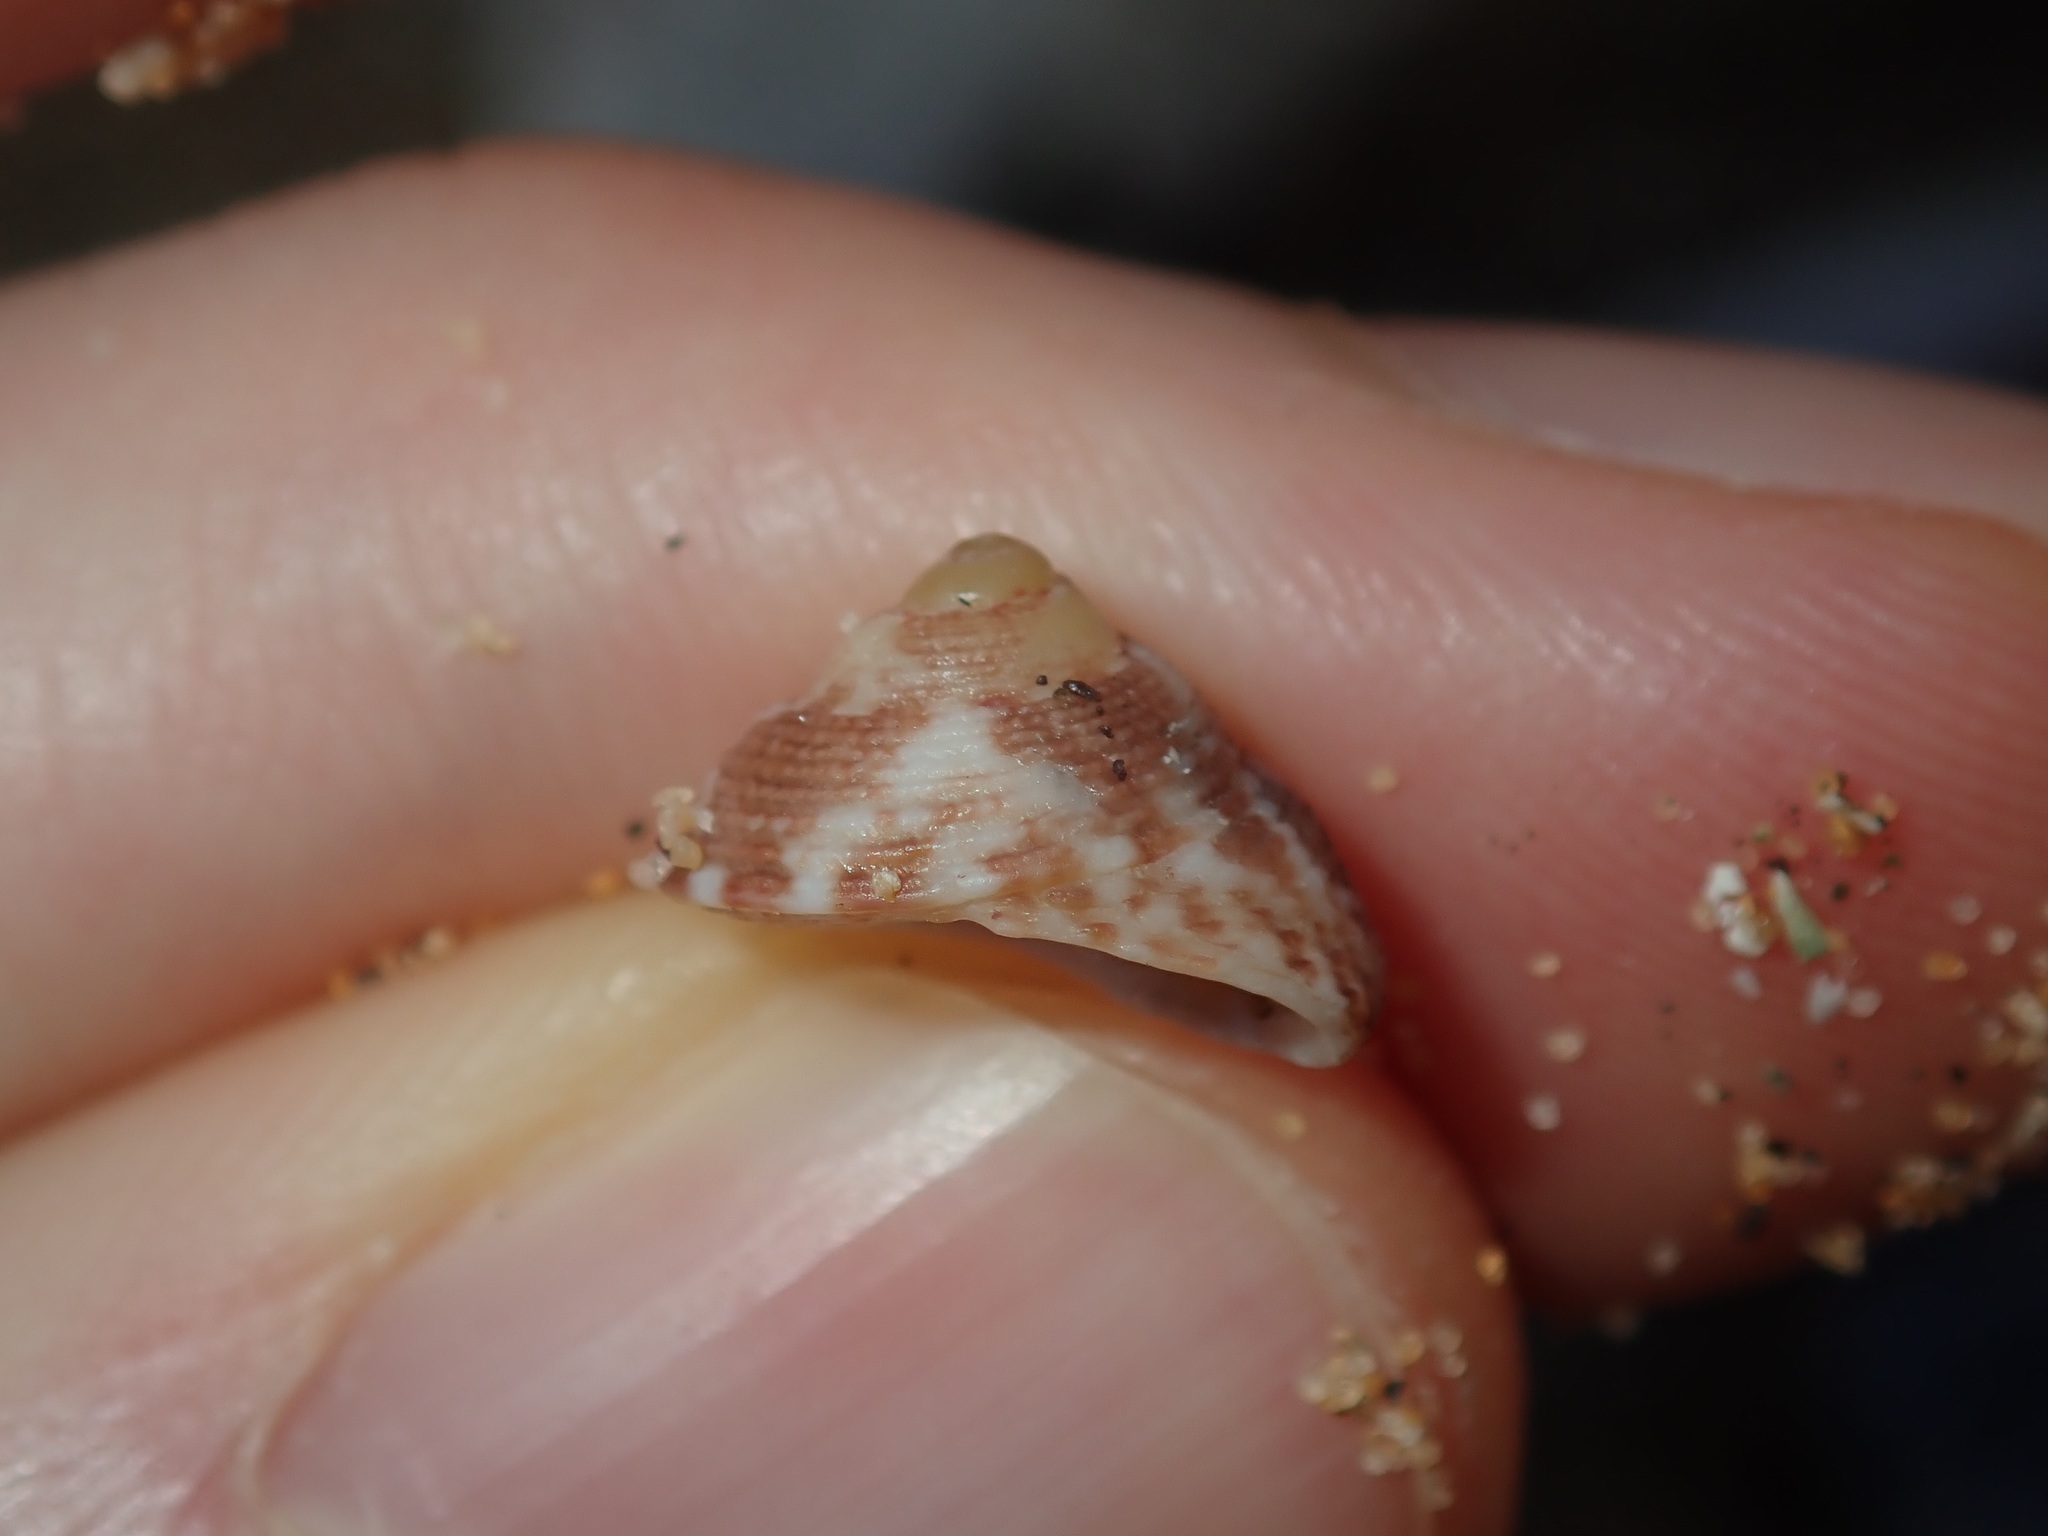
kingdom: Animalia
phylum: Mollusca
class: Gastropoda
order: Trochida
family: Trochidae
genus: Clanculus
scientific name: Clanculus brunneus
